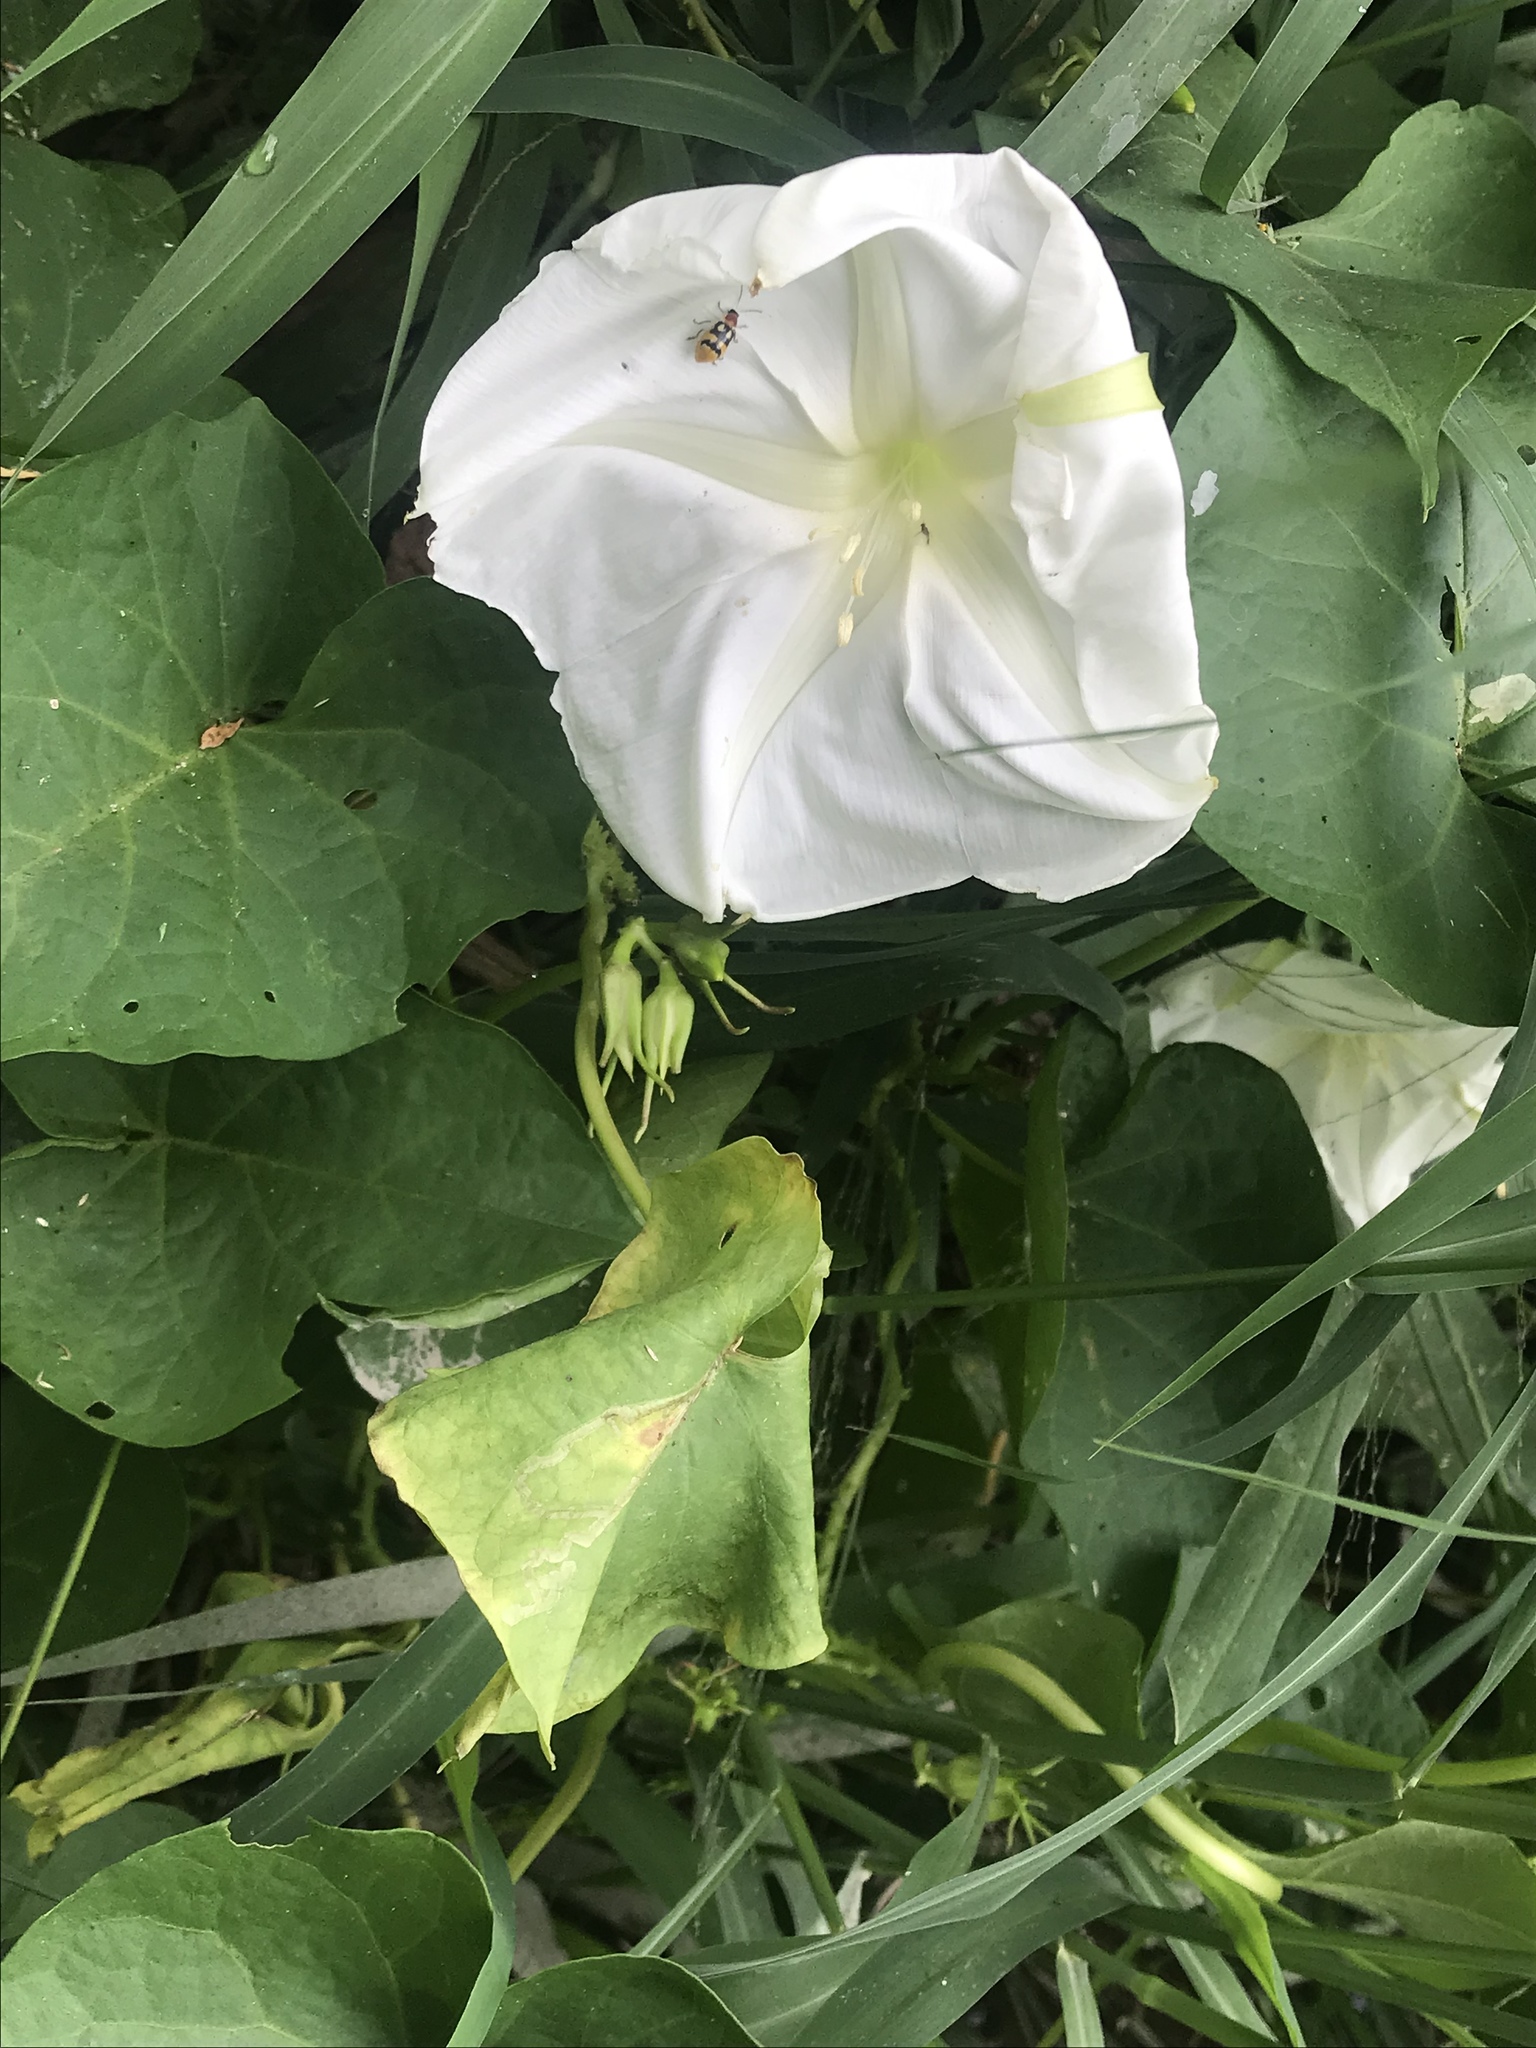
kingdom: Plantae
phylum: Tracheophyta
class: Magnoliopsida
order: Solanales
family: Convolvulaceae
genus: Ipomoea
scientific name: Ipomoea alba
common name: Moonflower
